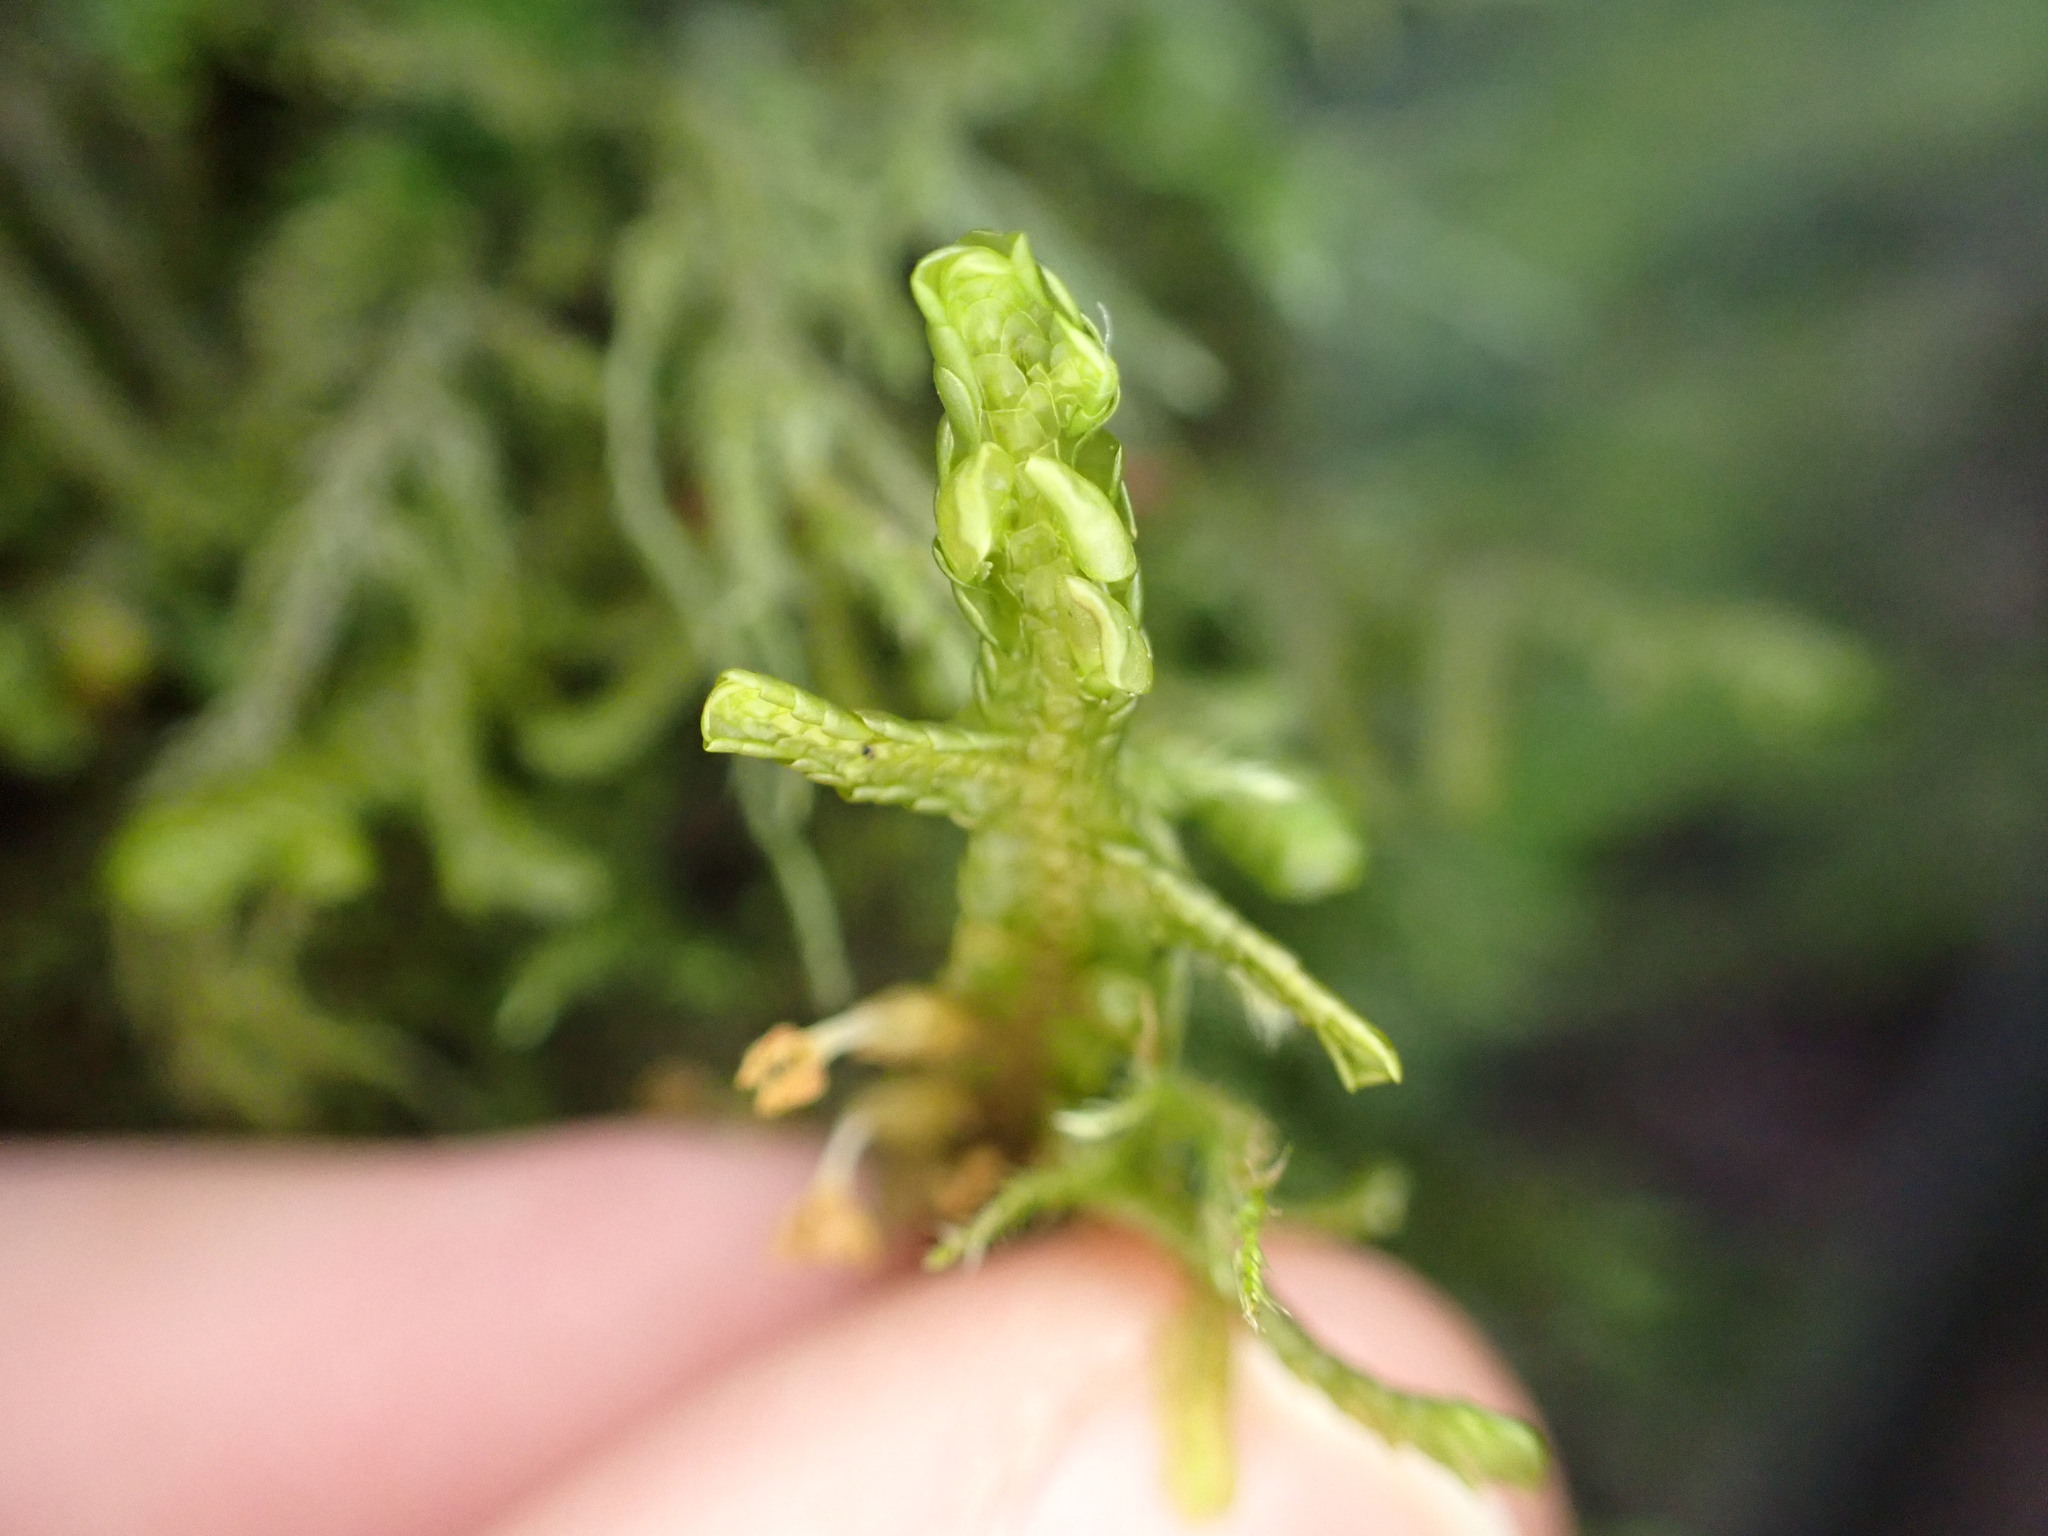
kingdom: Plantae
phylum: Marchantiophyta
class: Jungermanniopsida
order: Porellales
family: Porellaceae
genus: Porella
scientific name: Porella navicularis
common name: Tree ruffle liverwort
